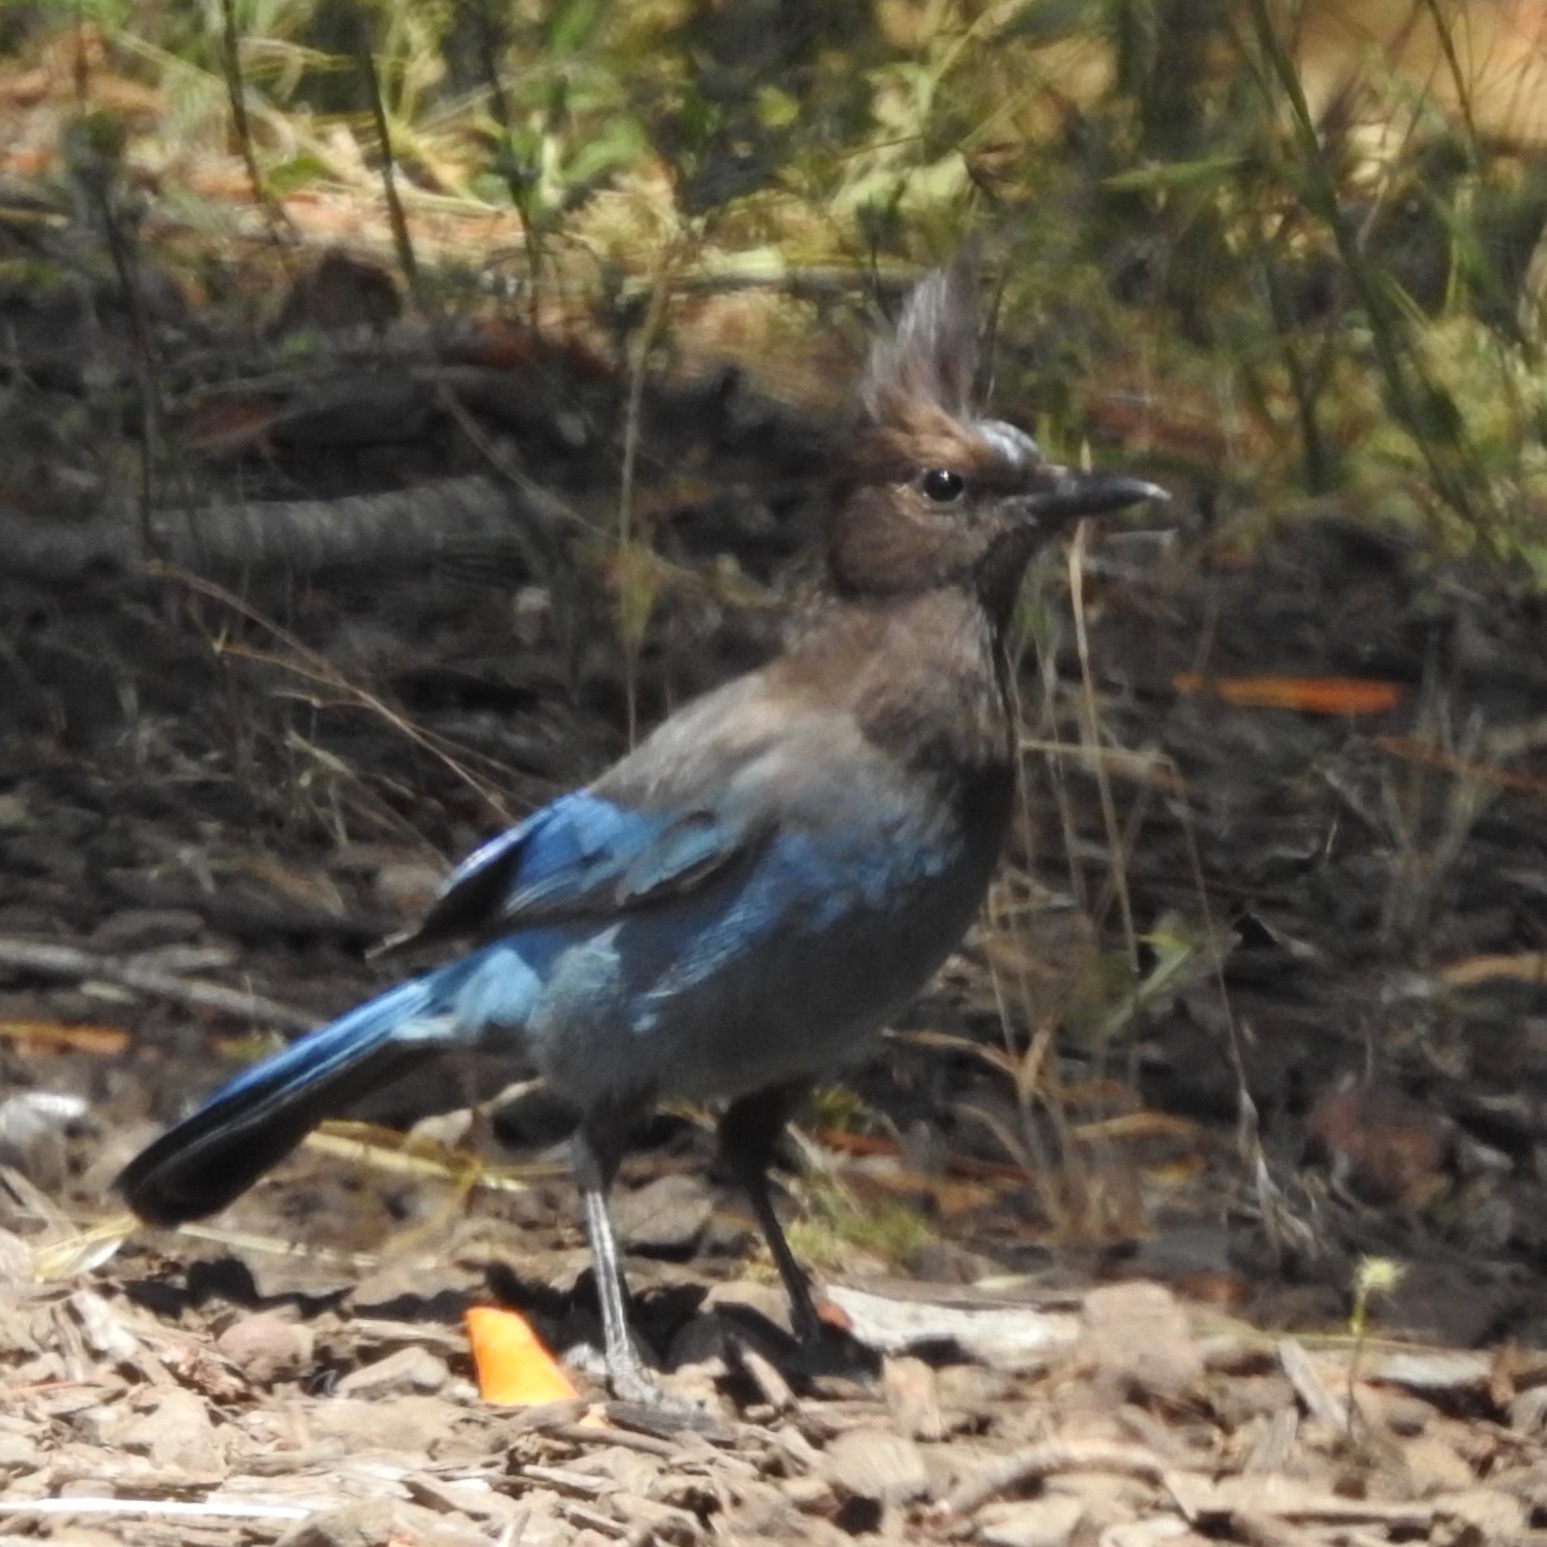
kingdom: Animalia
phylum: Chordata
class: Aves
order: Passeriformes
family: Corvidae
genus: Cyanocitta
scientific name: Cyanocitta stelleri
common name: Steller's jay
